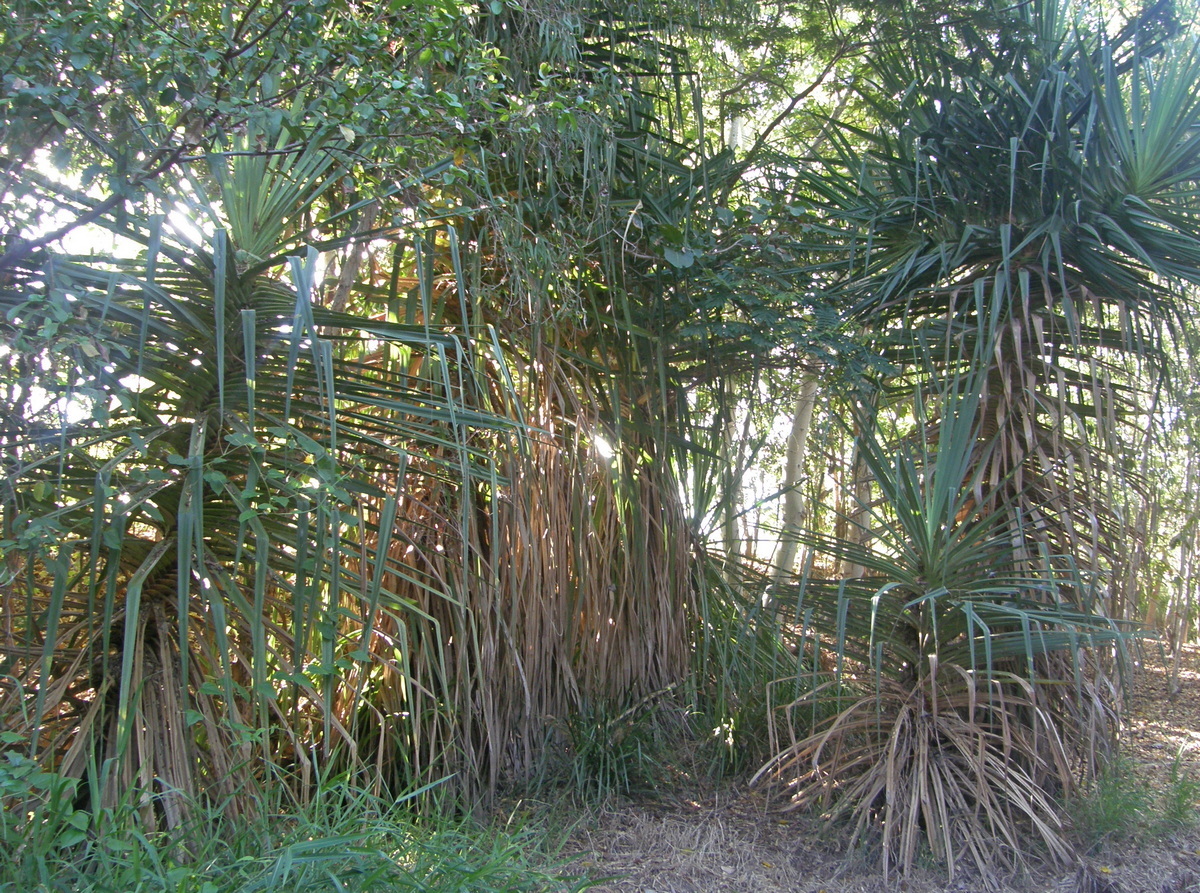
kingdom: Plantae
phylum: Tracheophyta
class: Liliopsida
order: Pandanales
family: Pandanaceae
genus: Pandanus
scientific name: Pandanus cookii
